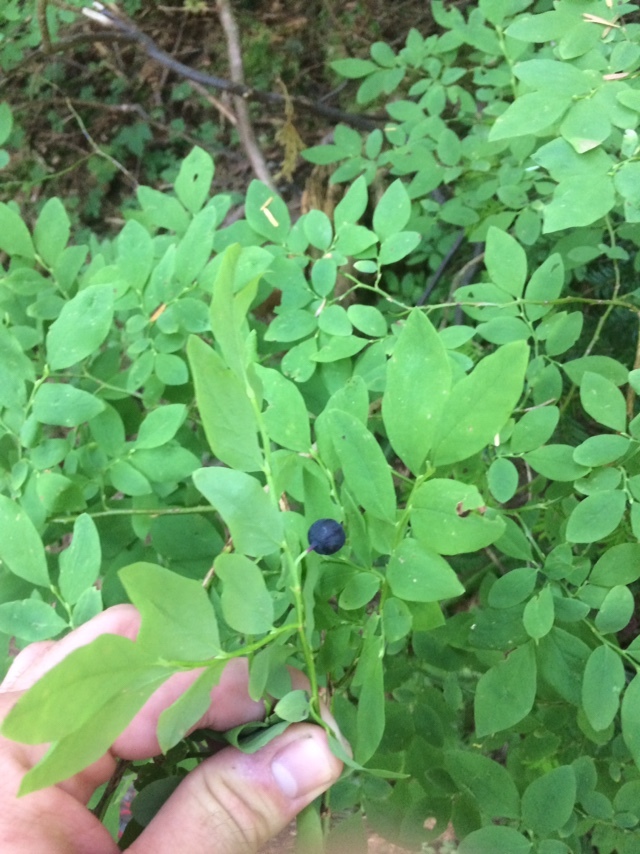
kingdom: Plantae
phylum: Tracheophyta
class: Magnoliopsida
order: Ericales
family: Ericaceae
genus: Vaccinium
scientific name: Vaccinium ovalifolium
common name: Early blueberry
